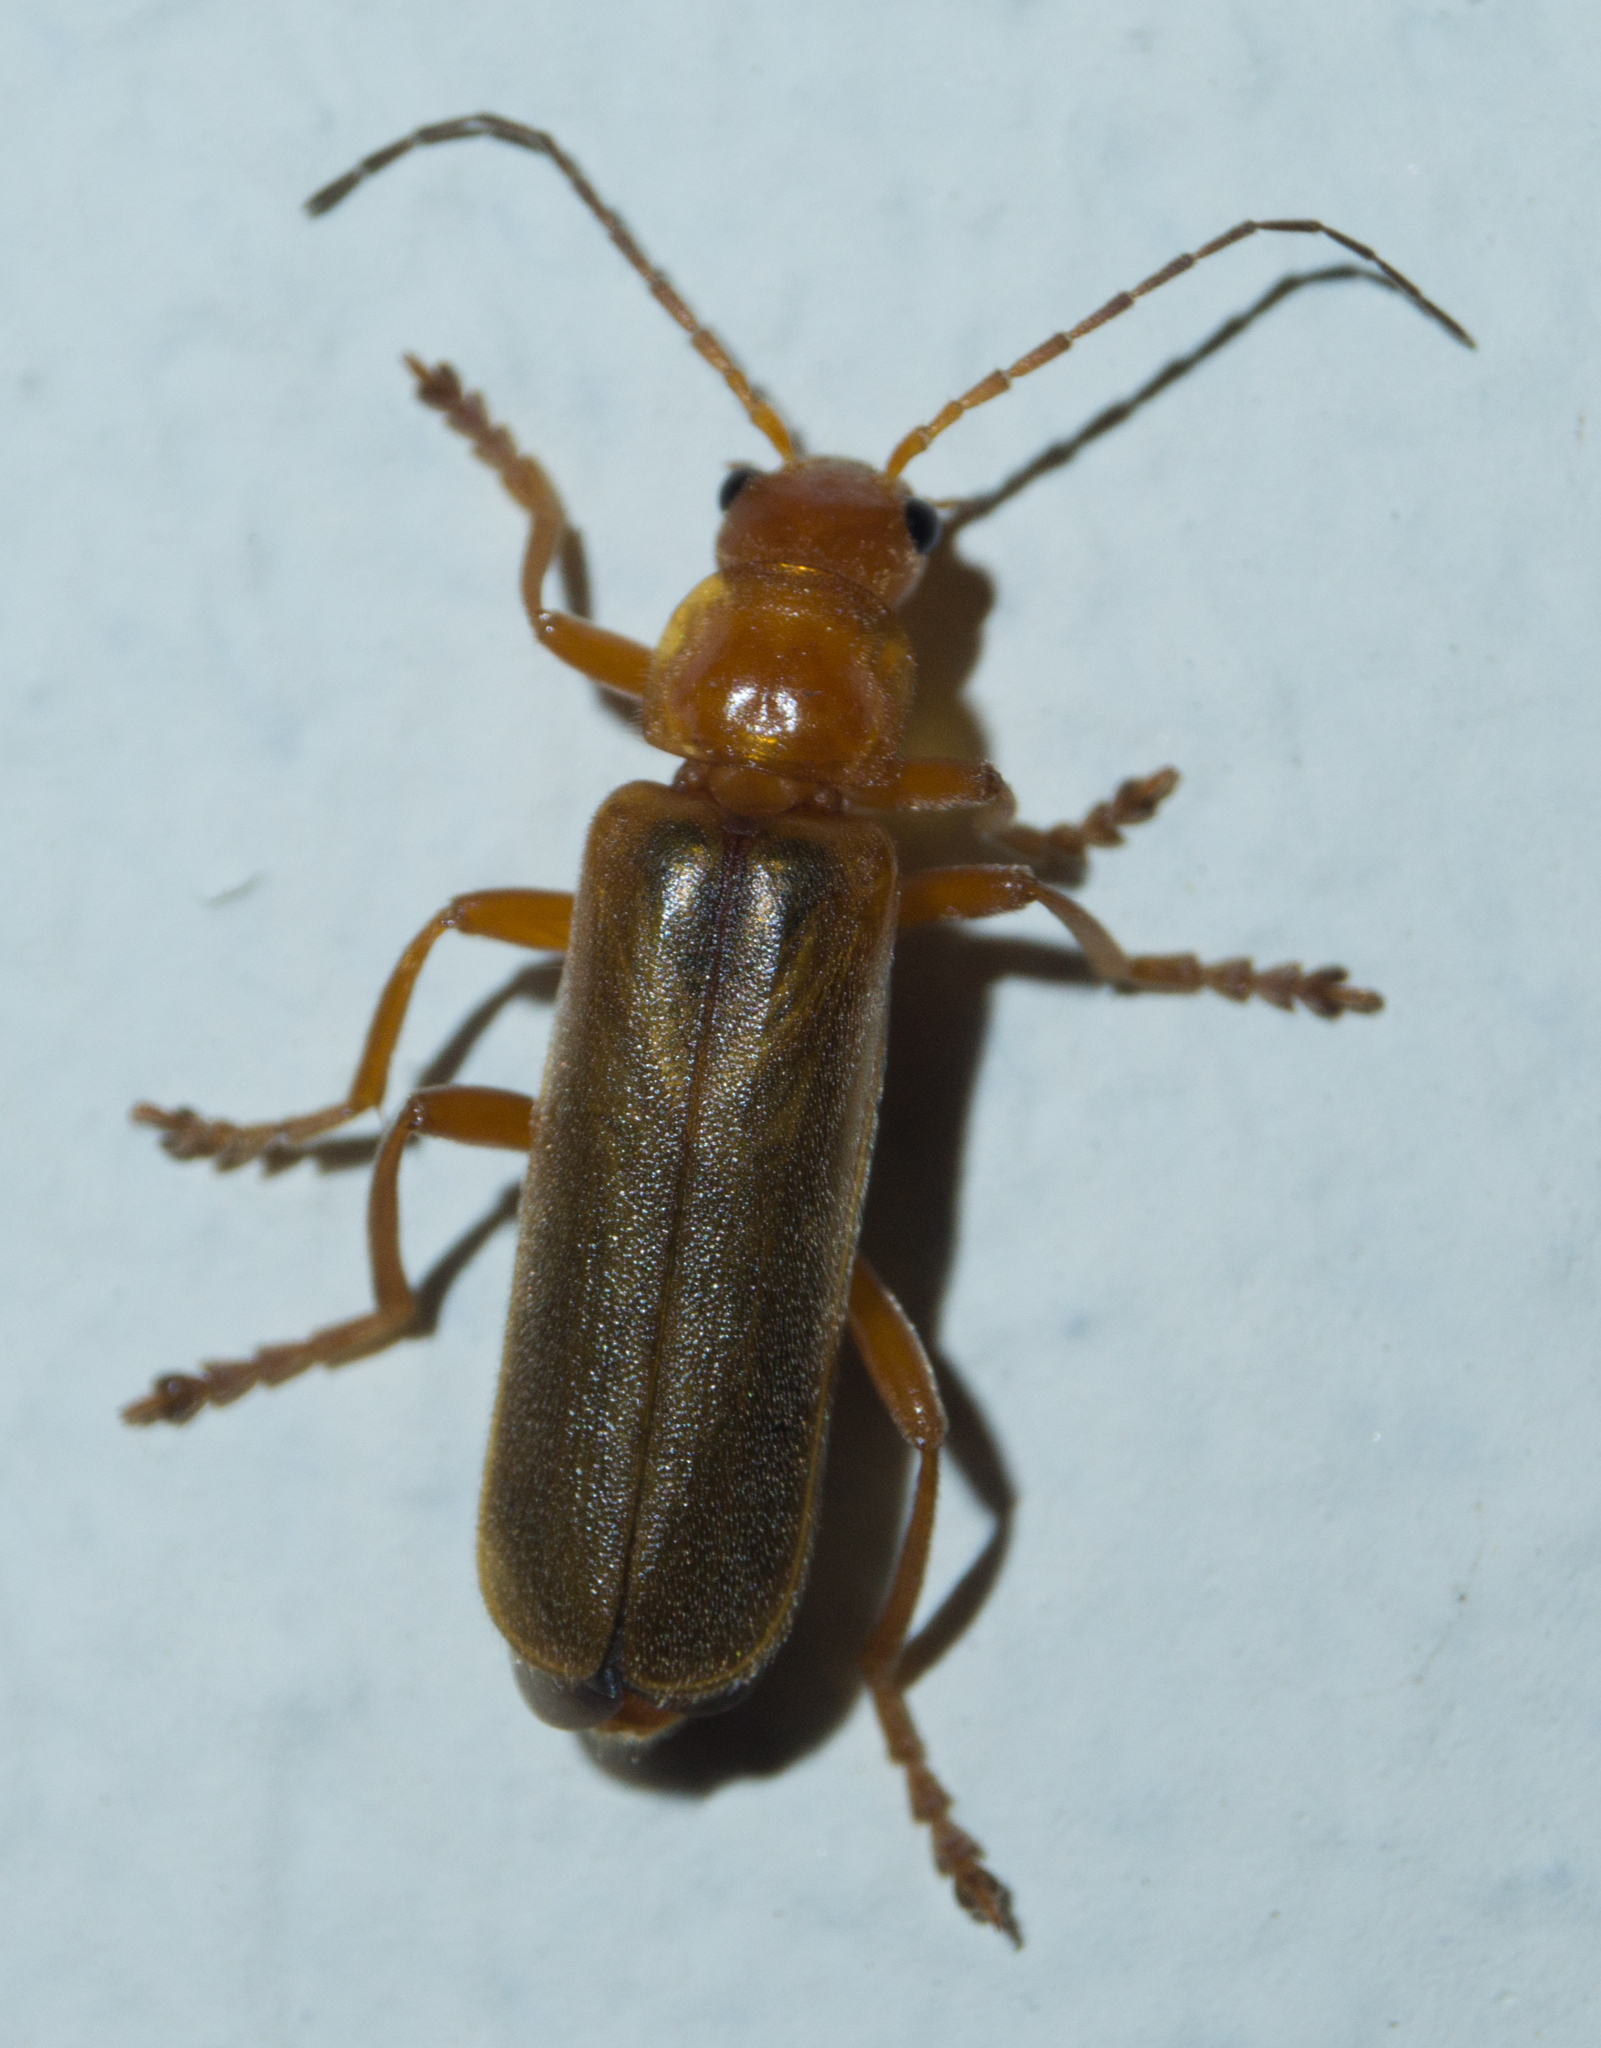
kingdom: Animalia
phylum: Arthropoda
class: Insecta
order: Coleoptera
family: Cantharidae
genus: Cantharis
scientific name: Cantharis rufa
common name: Red-spotted soldier beetle
